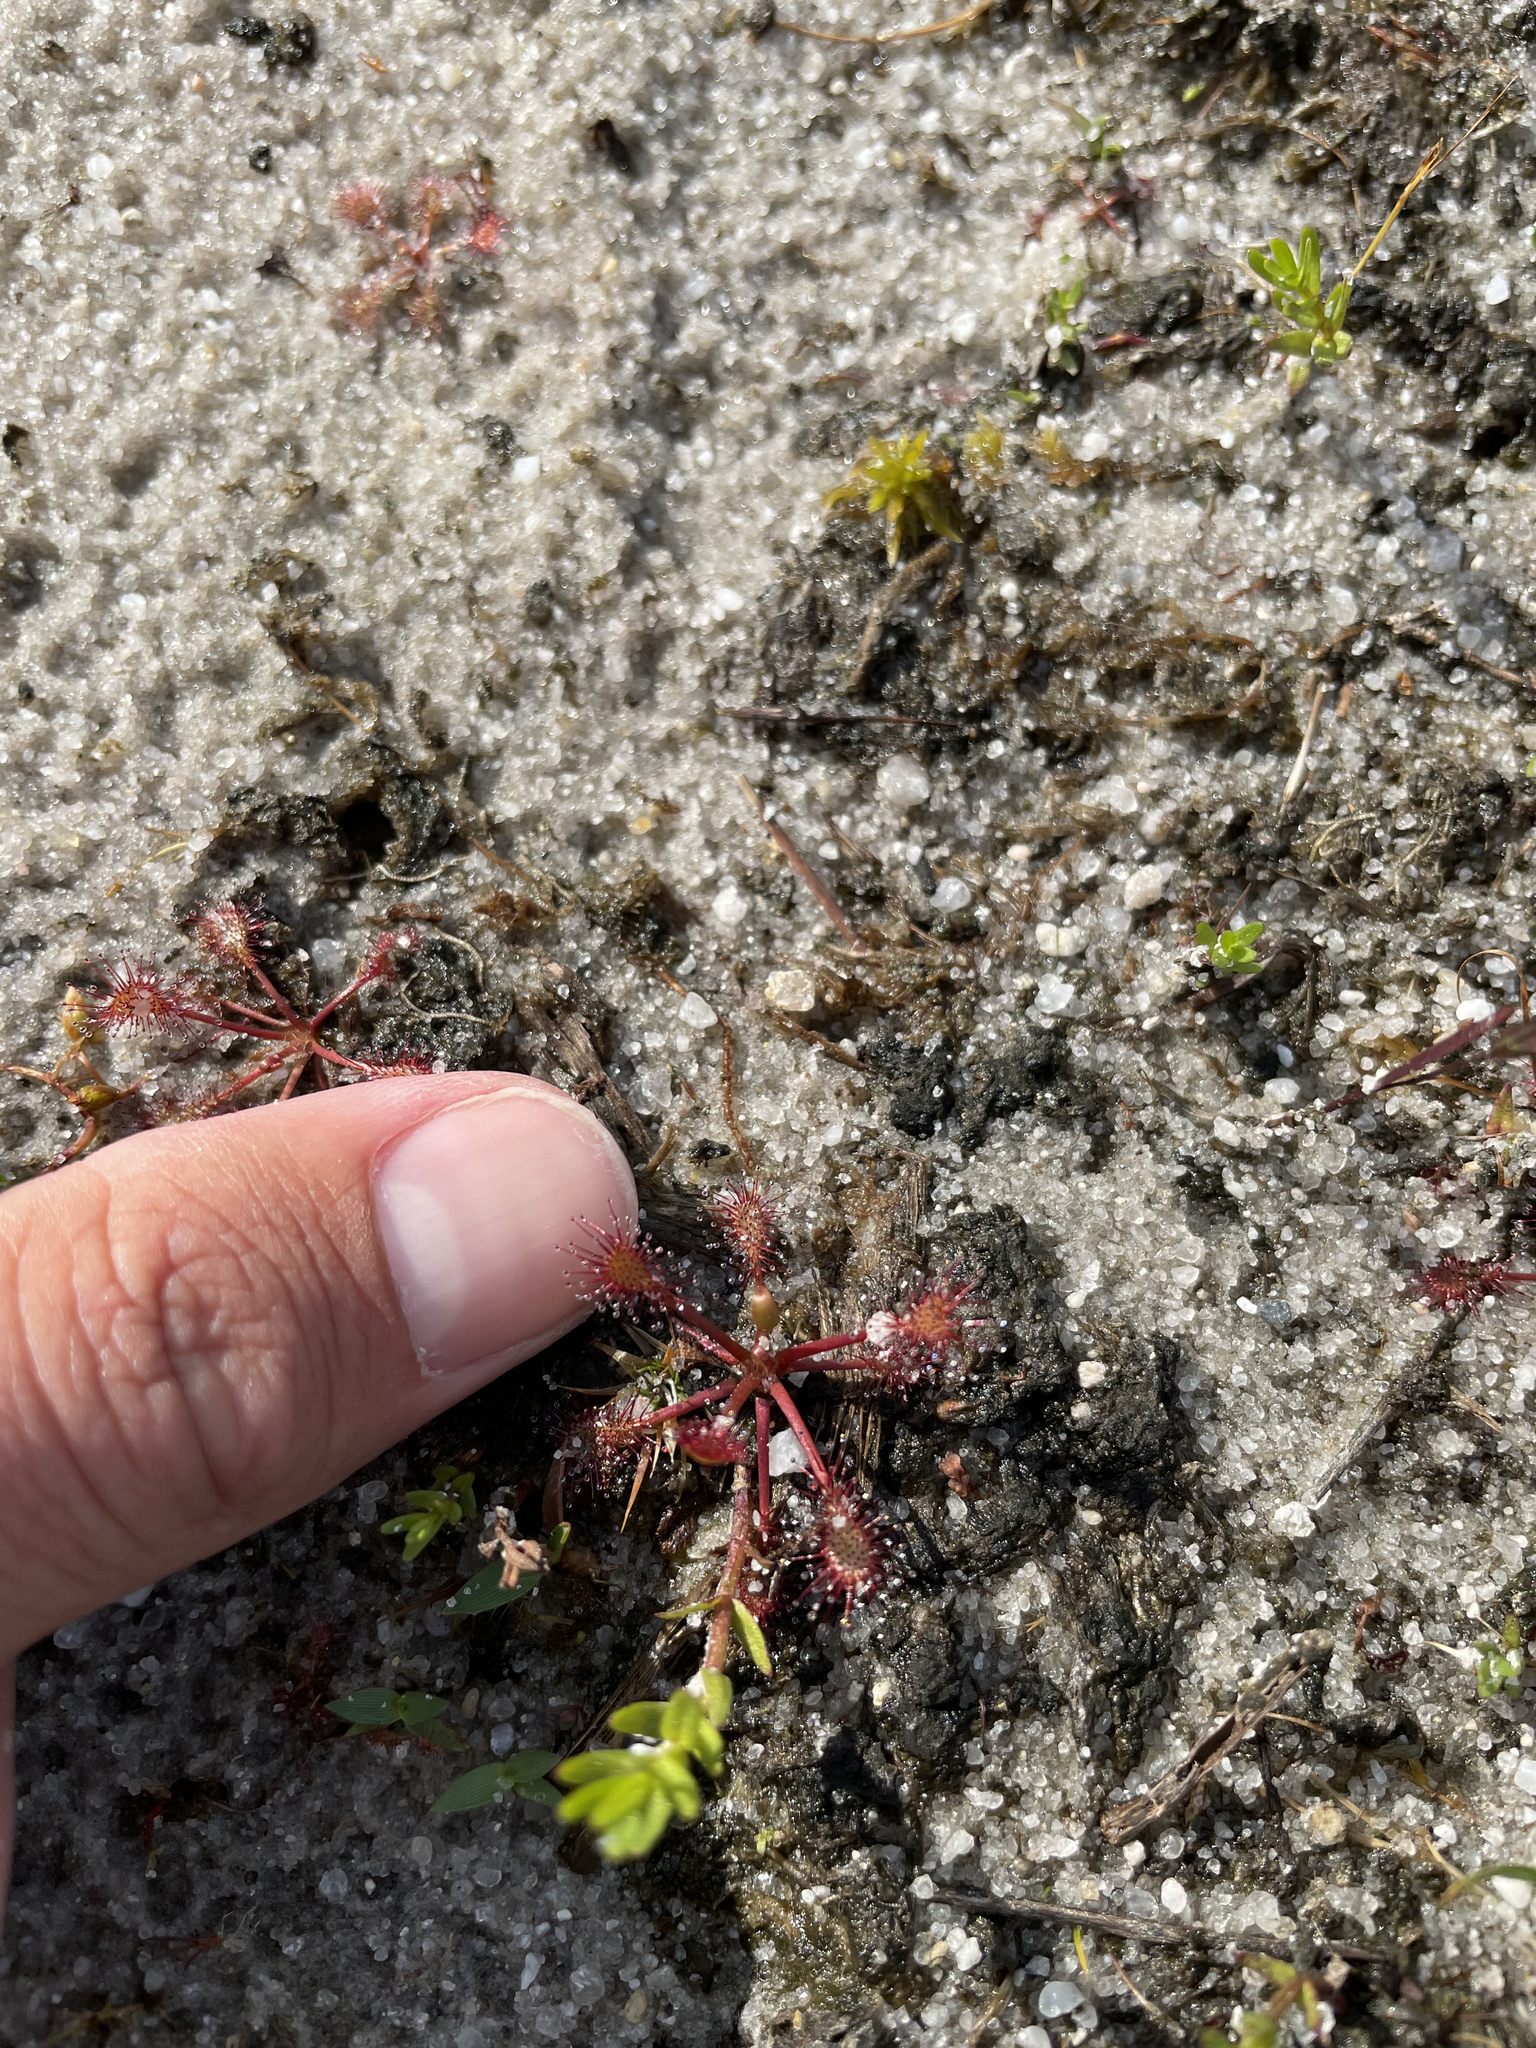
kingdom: Plantae
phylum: Tracheophyta
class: Magnoliopsida
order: Caryophyllales
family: Droseraceae
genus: Drosera
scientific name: Drosera intermedia
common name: Oblong-leaved sundew
